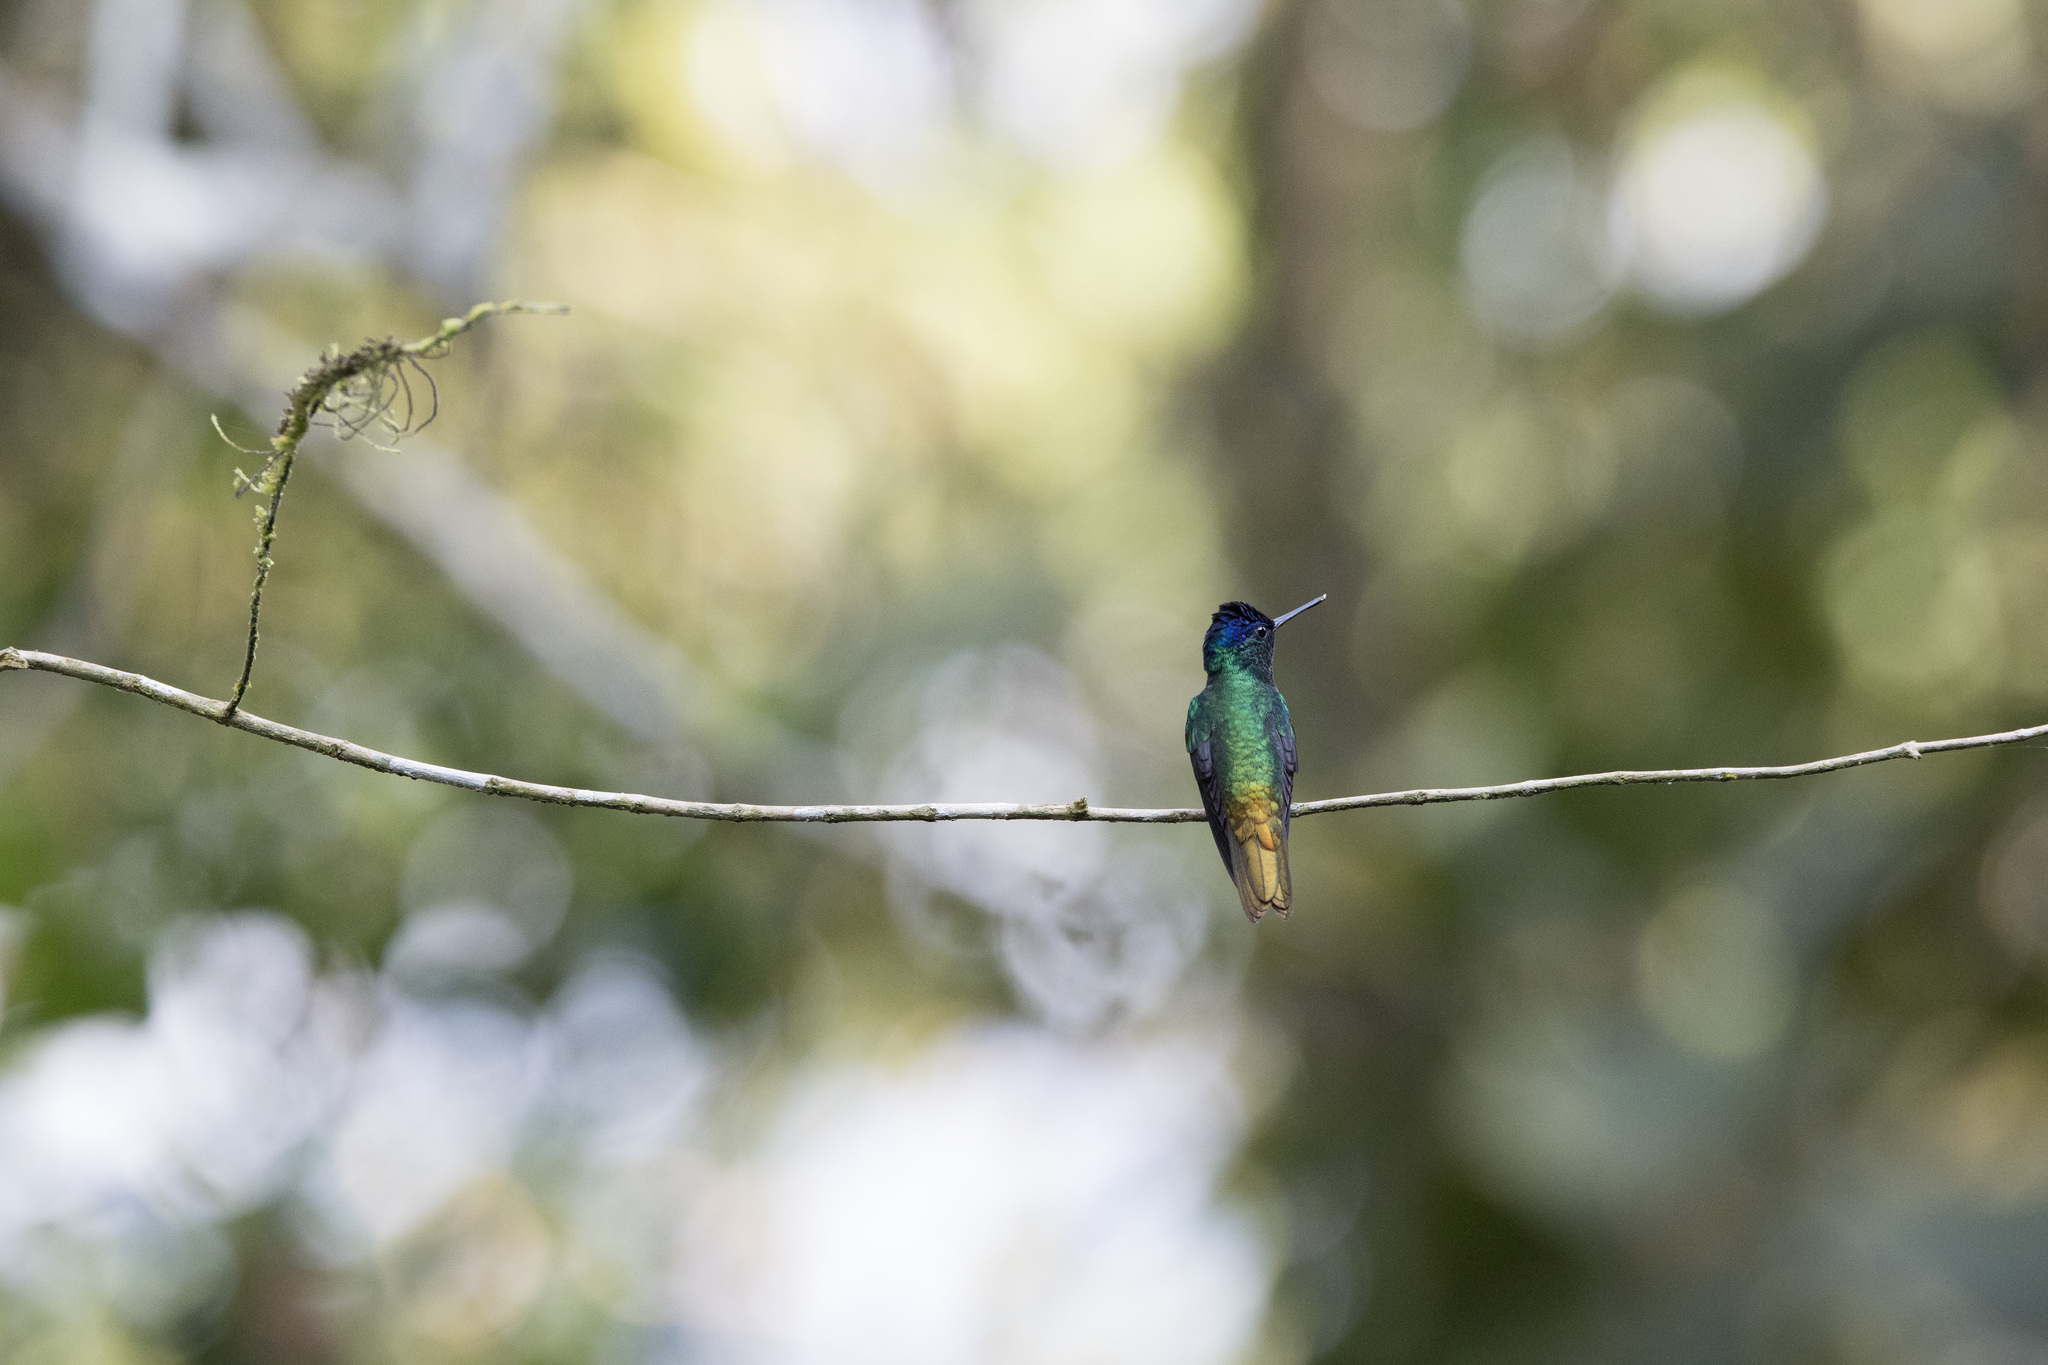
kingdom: Animalia
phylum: Chordata
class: Aves
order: Apodiformes
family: Trochilidae
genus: Chrysuronia
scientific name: Chrysuronia oenone
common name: Golden-tailed sapphire
